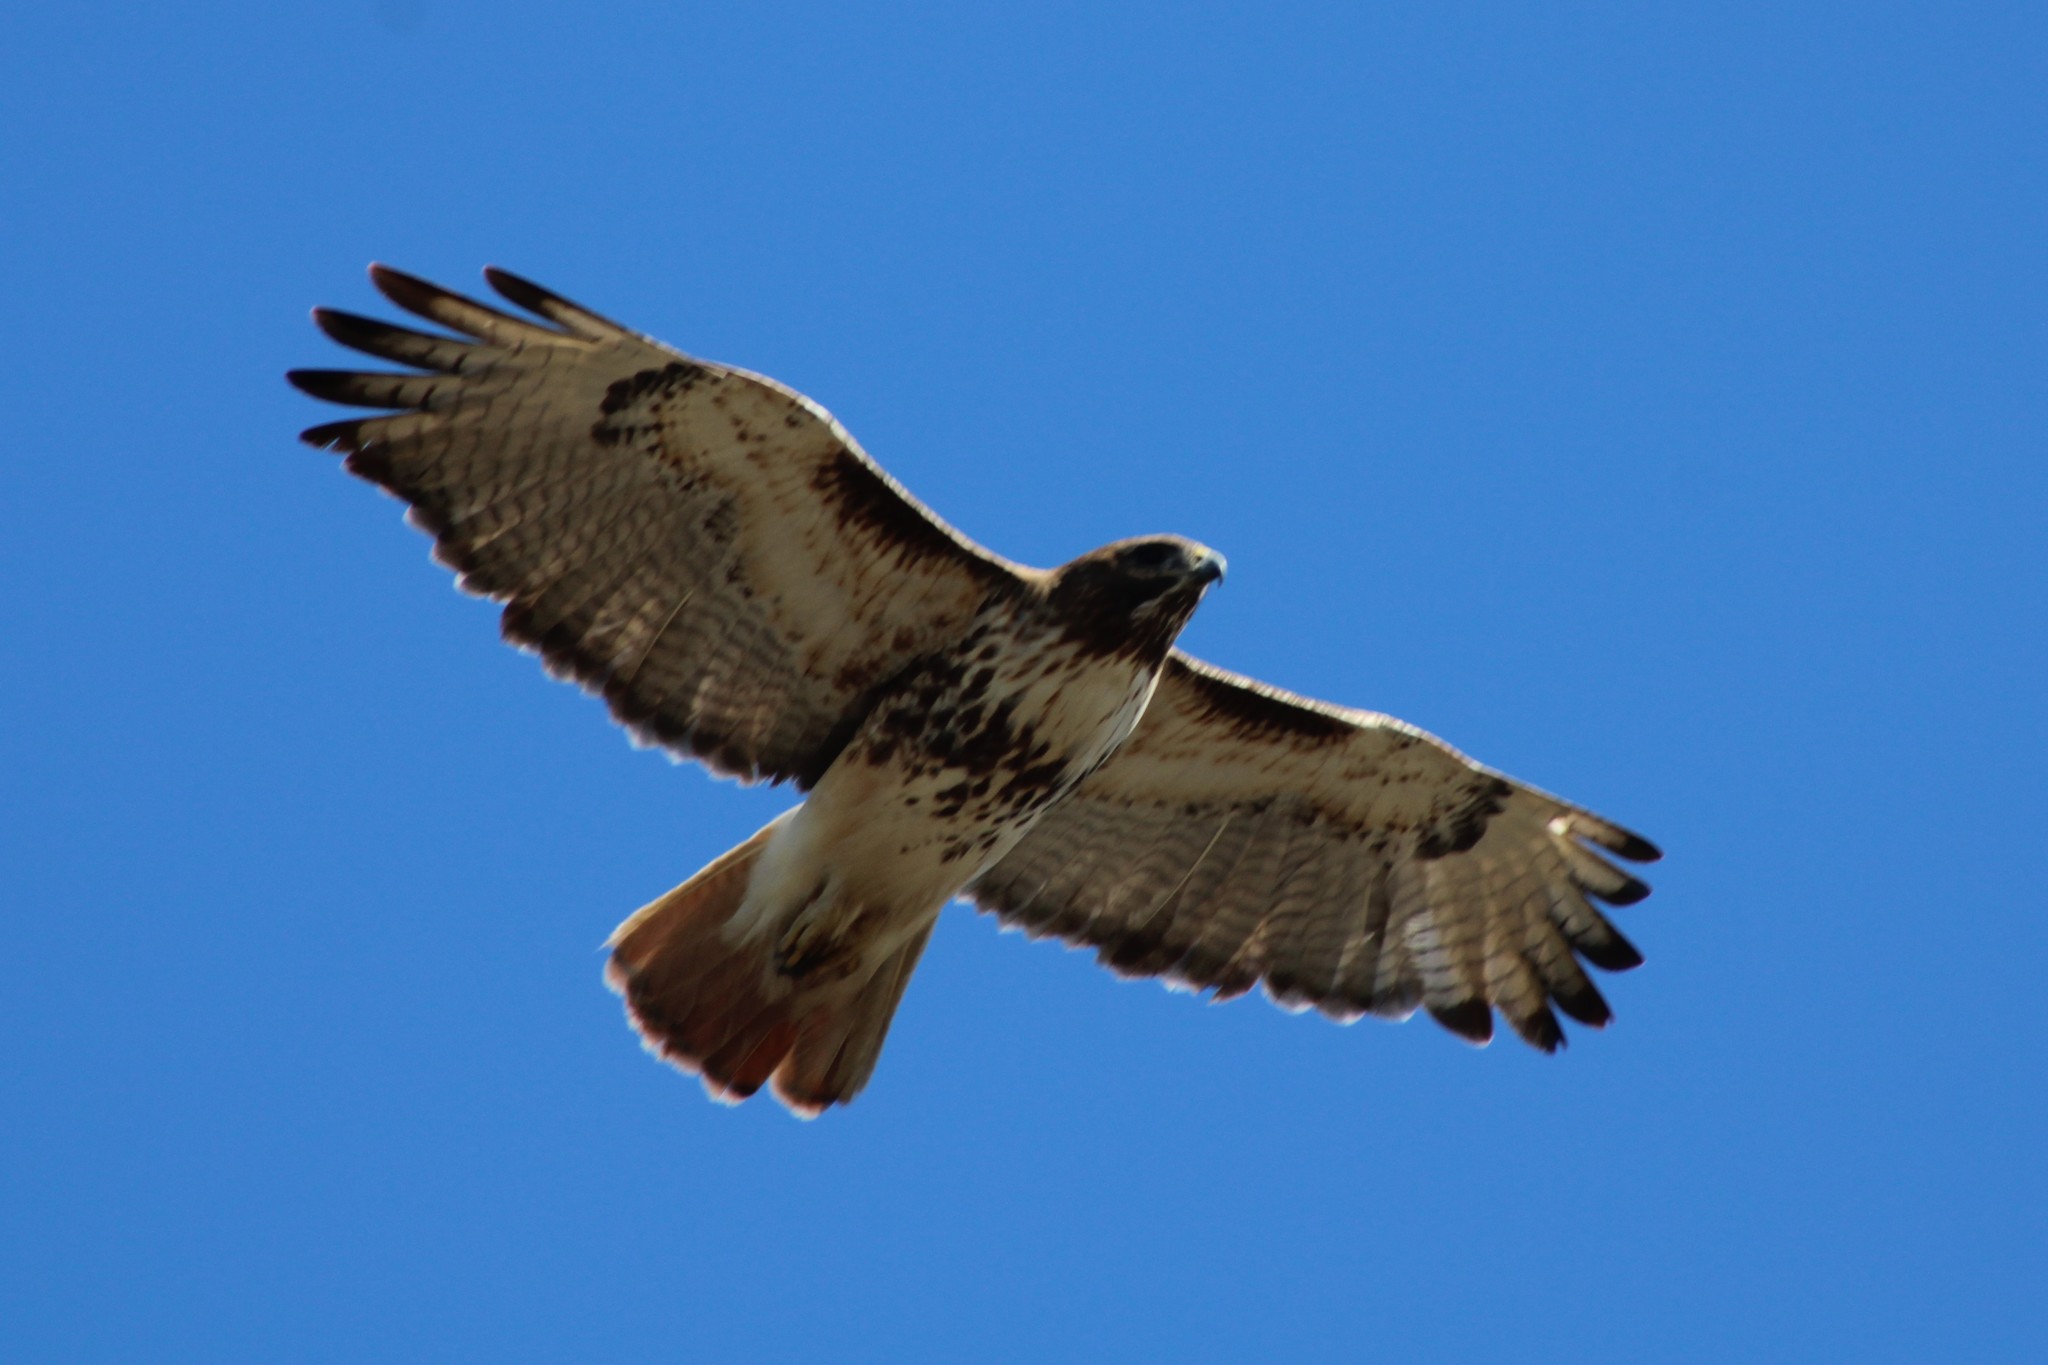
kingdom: Animalia
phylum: Chordata
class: Aves
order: Accipitriformes
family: Accipitridae
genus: Buteo
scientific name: Buteo jamaicensis
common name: Red-tailed hawk
